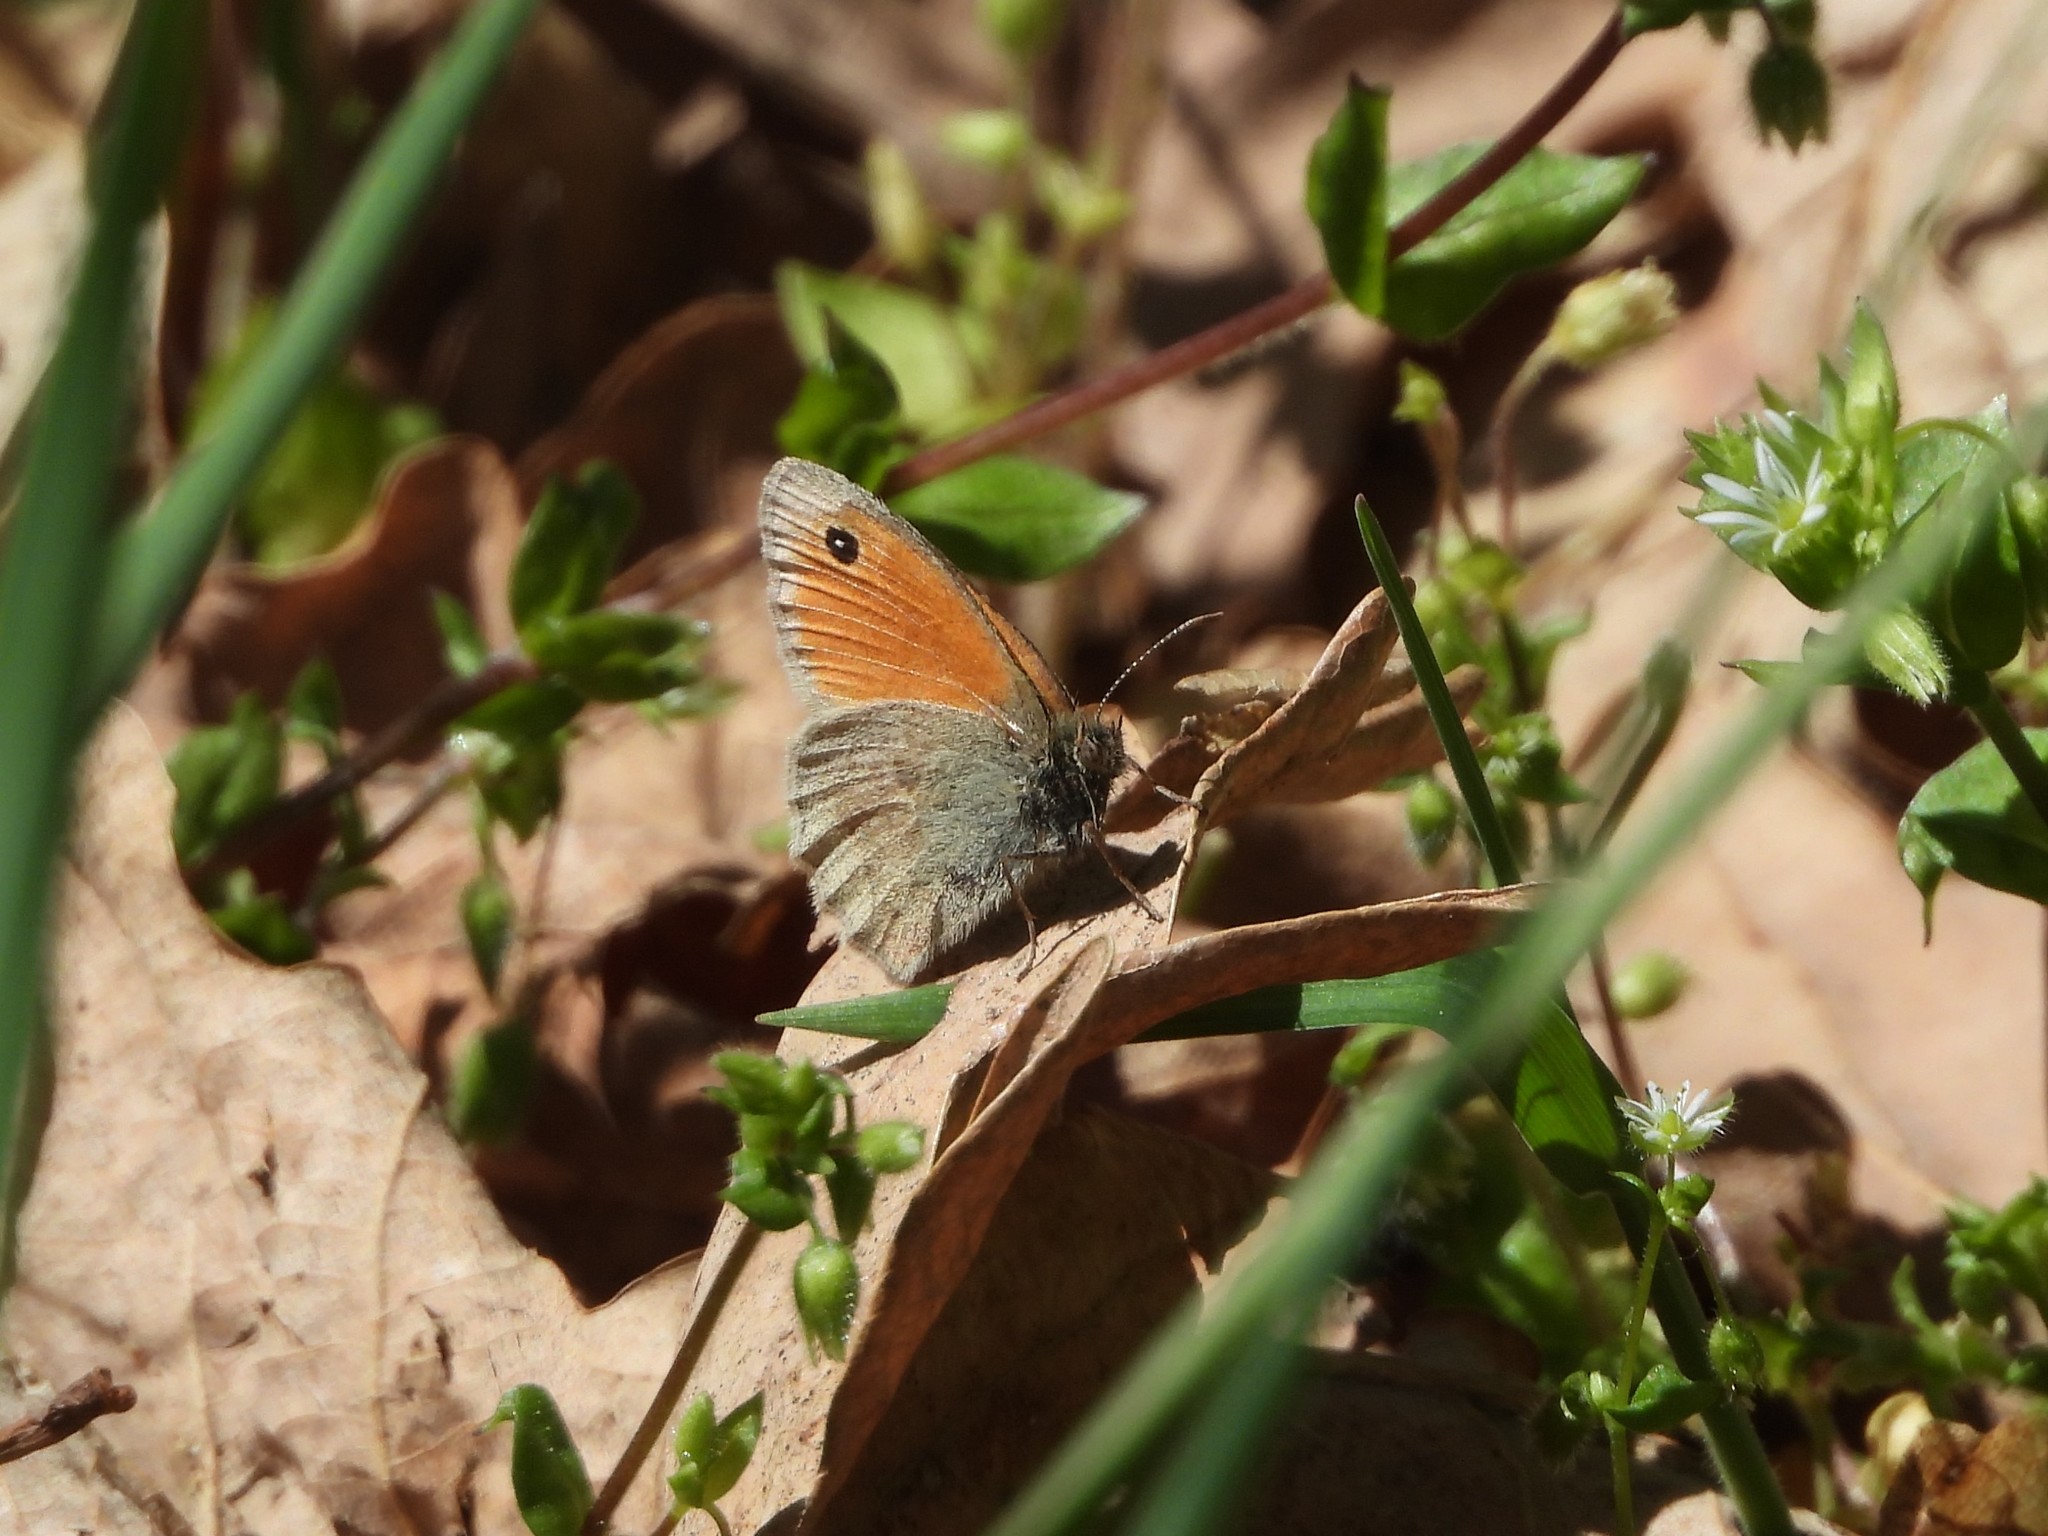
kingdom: Animalia
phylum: Arthropoda
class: Insecta
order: Lepidoptera
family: Nymphalidae
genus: Coenonympha
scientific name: Coenonympha pamphilus
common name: Small heath
